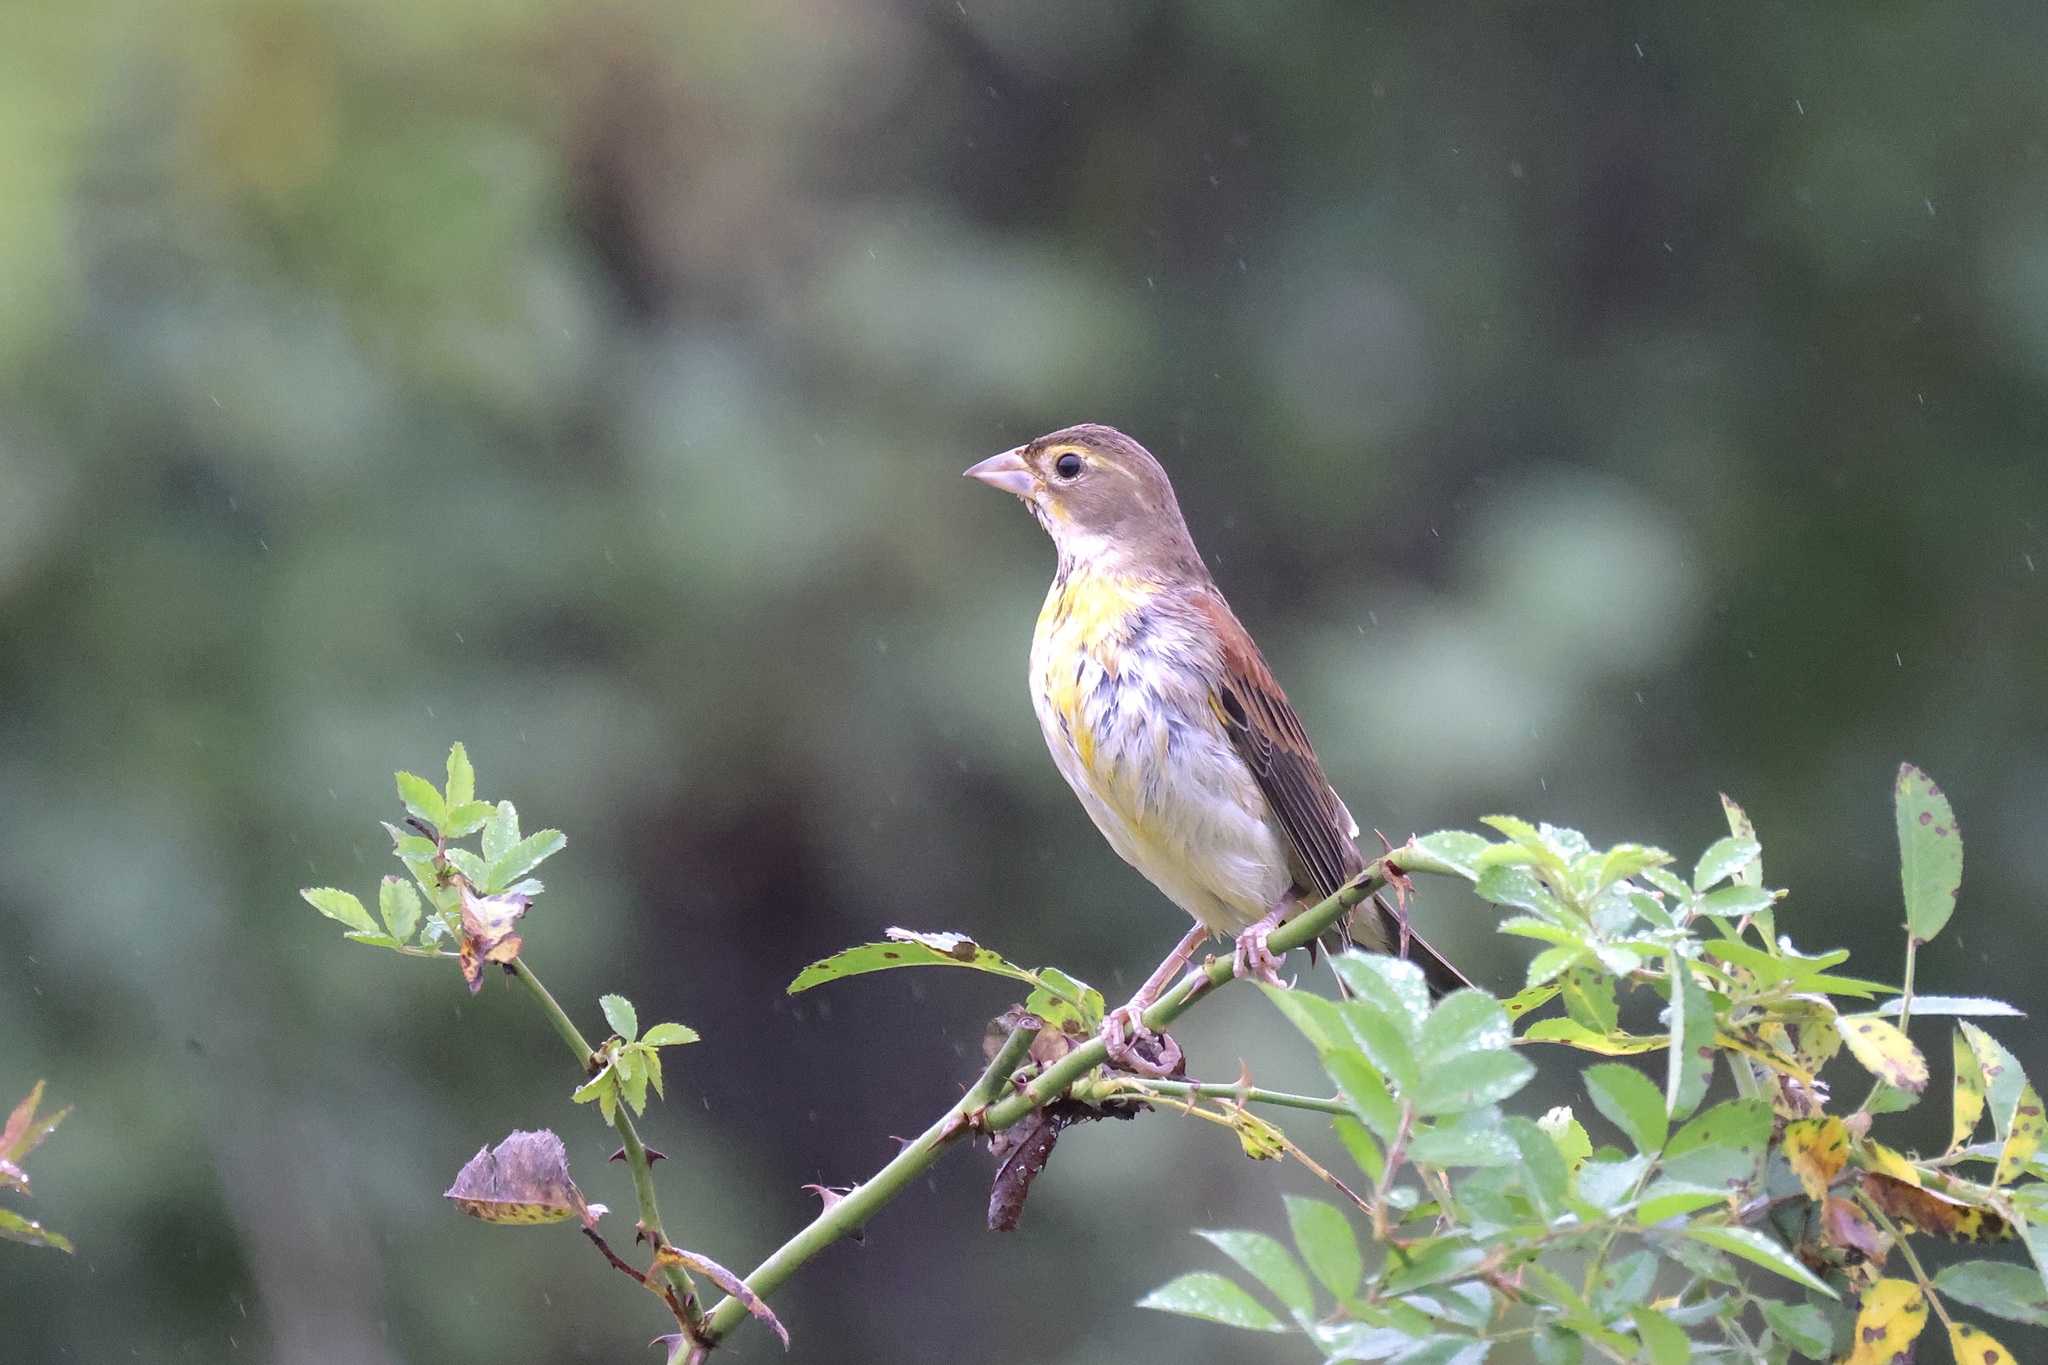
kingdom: Animalia
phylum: Chordata
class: Aves
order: Passeriformes
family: Cardinalidae
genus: Spiza
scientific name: Spiza americana
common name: Dickcissel
